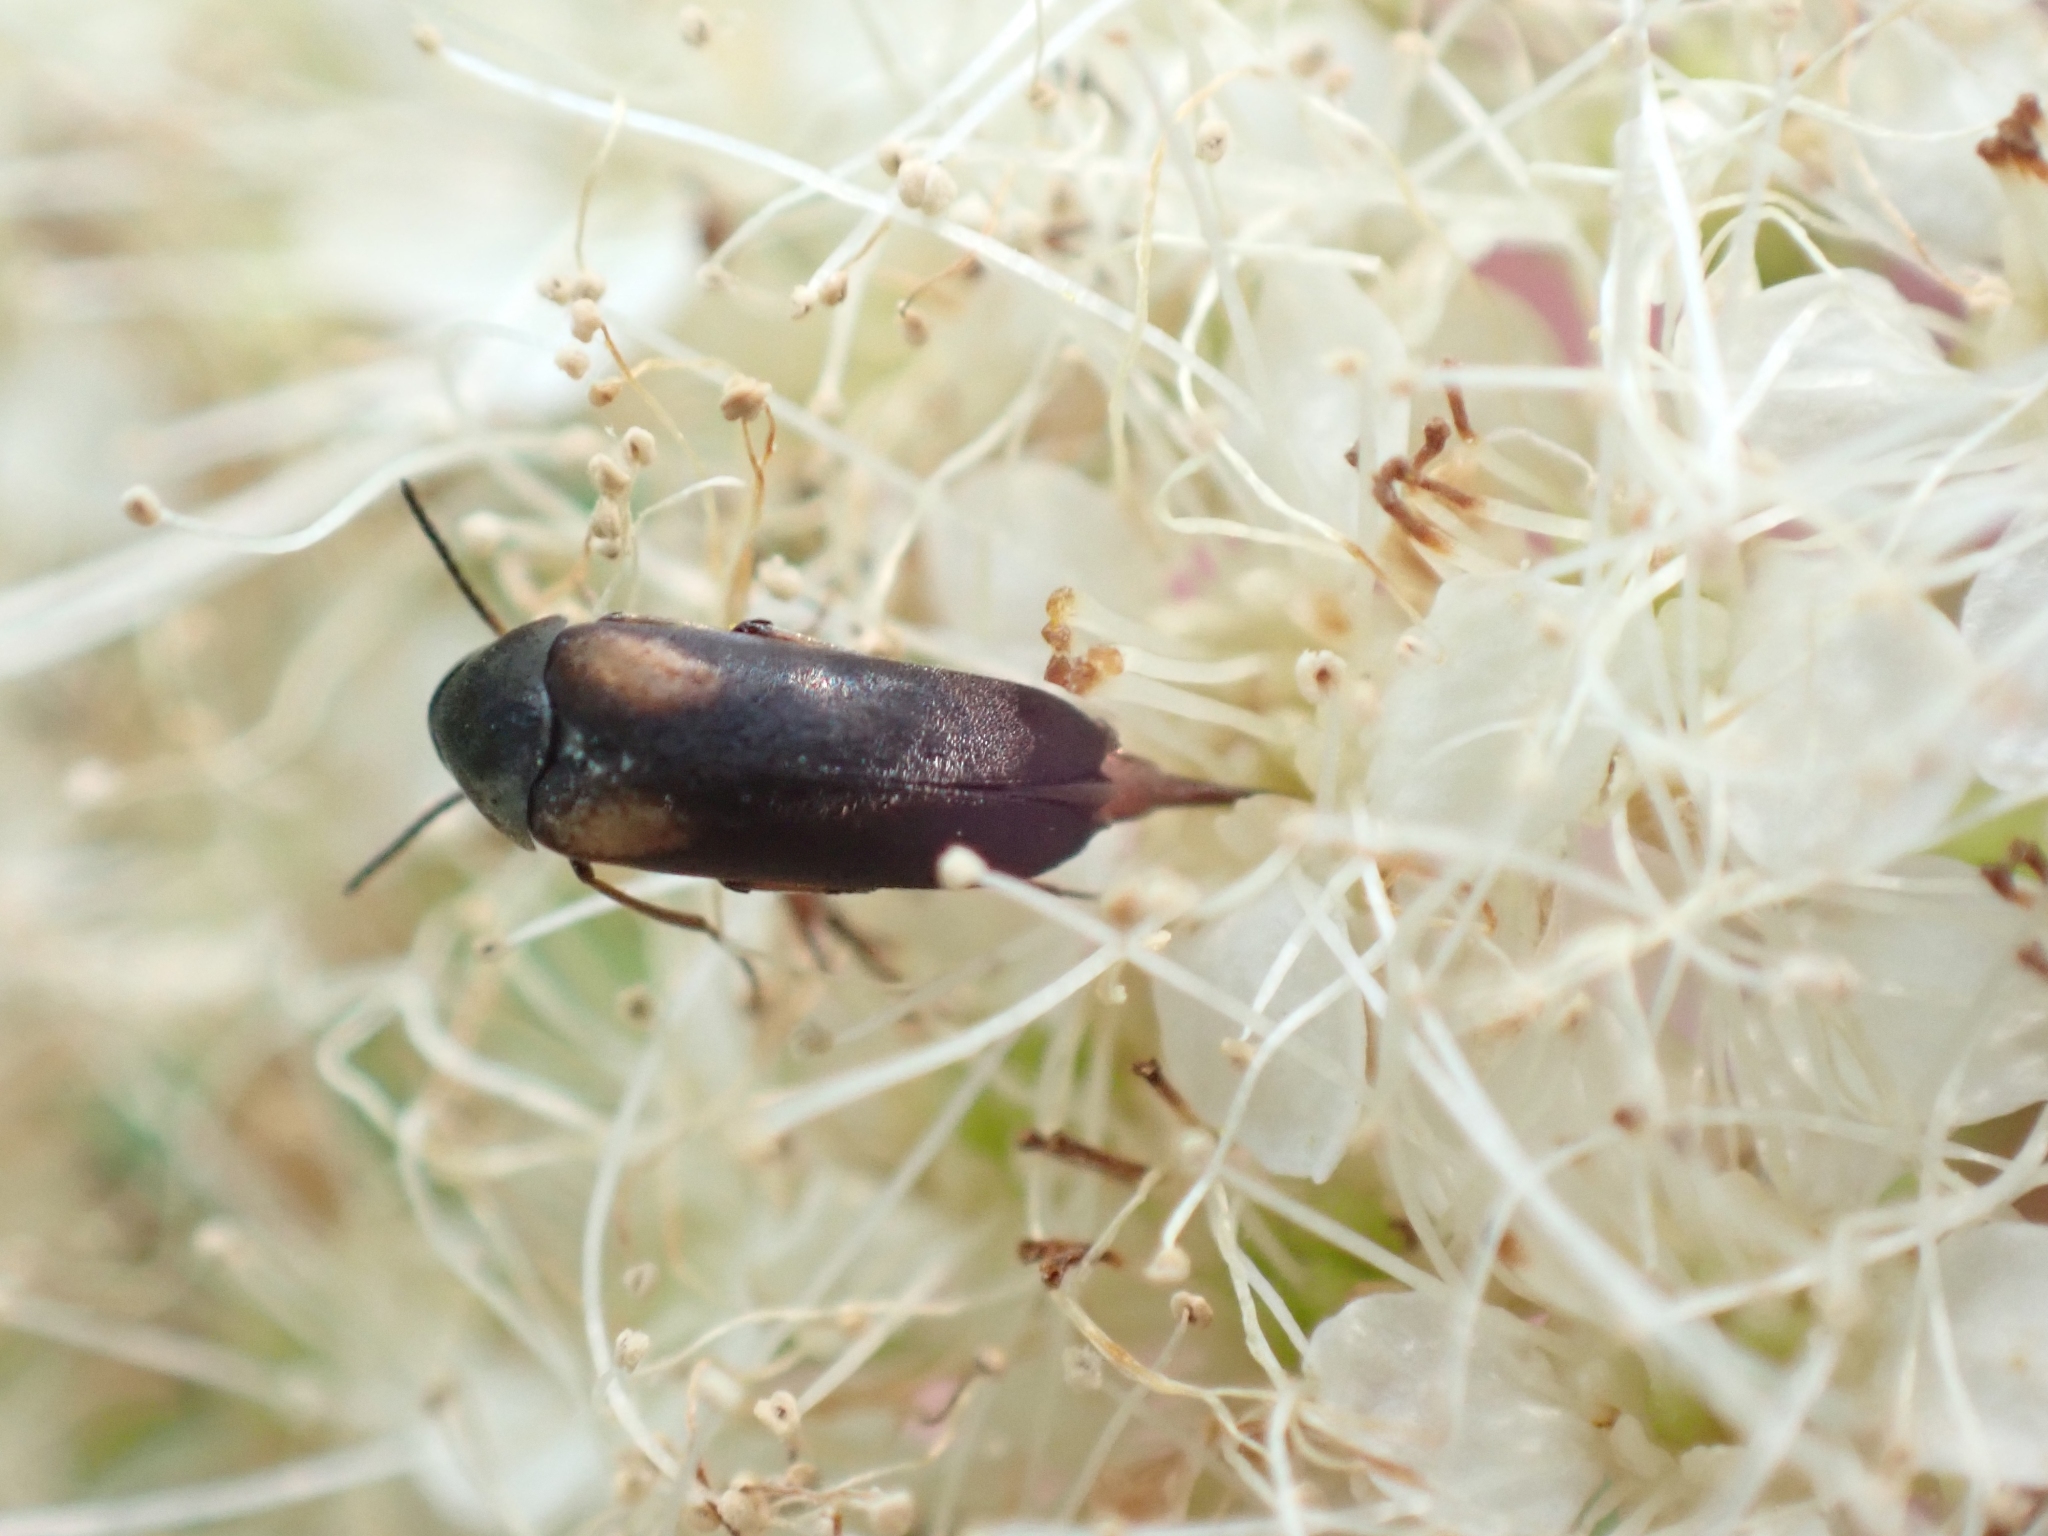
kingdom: Animalia
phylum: Arthropoda
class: Insecta
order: Coleoptera
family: Mordellidae
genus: Mordellochroa
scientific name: Mordellochroa scapularis
